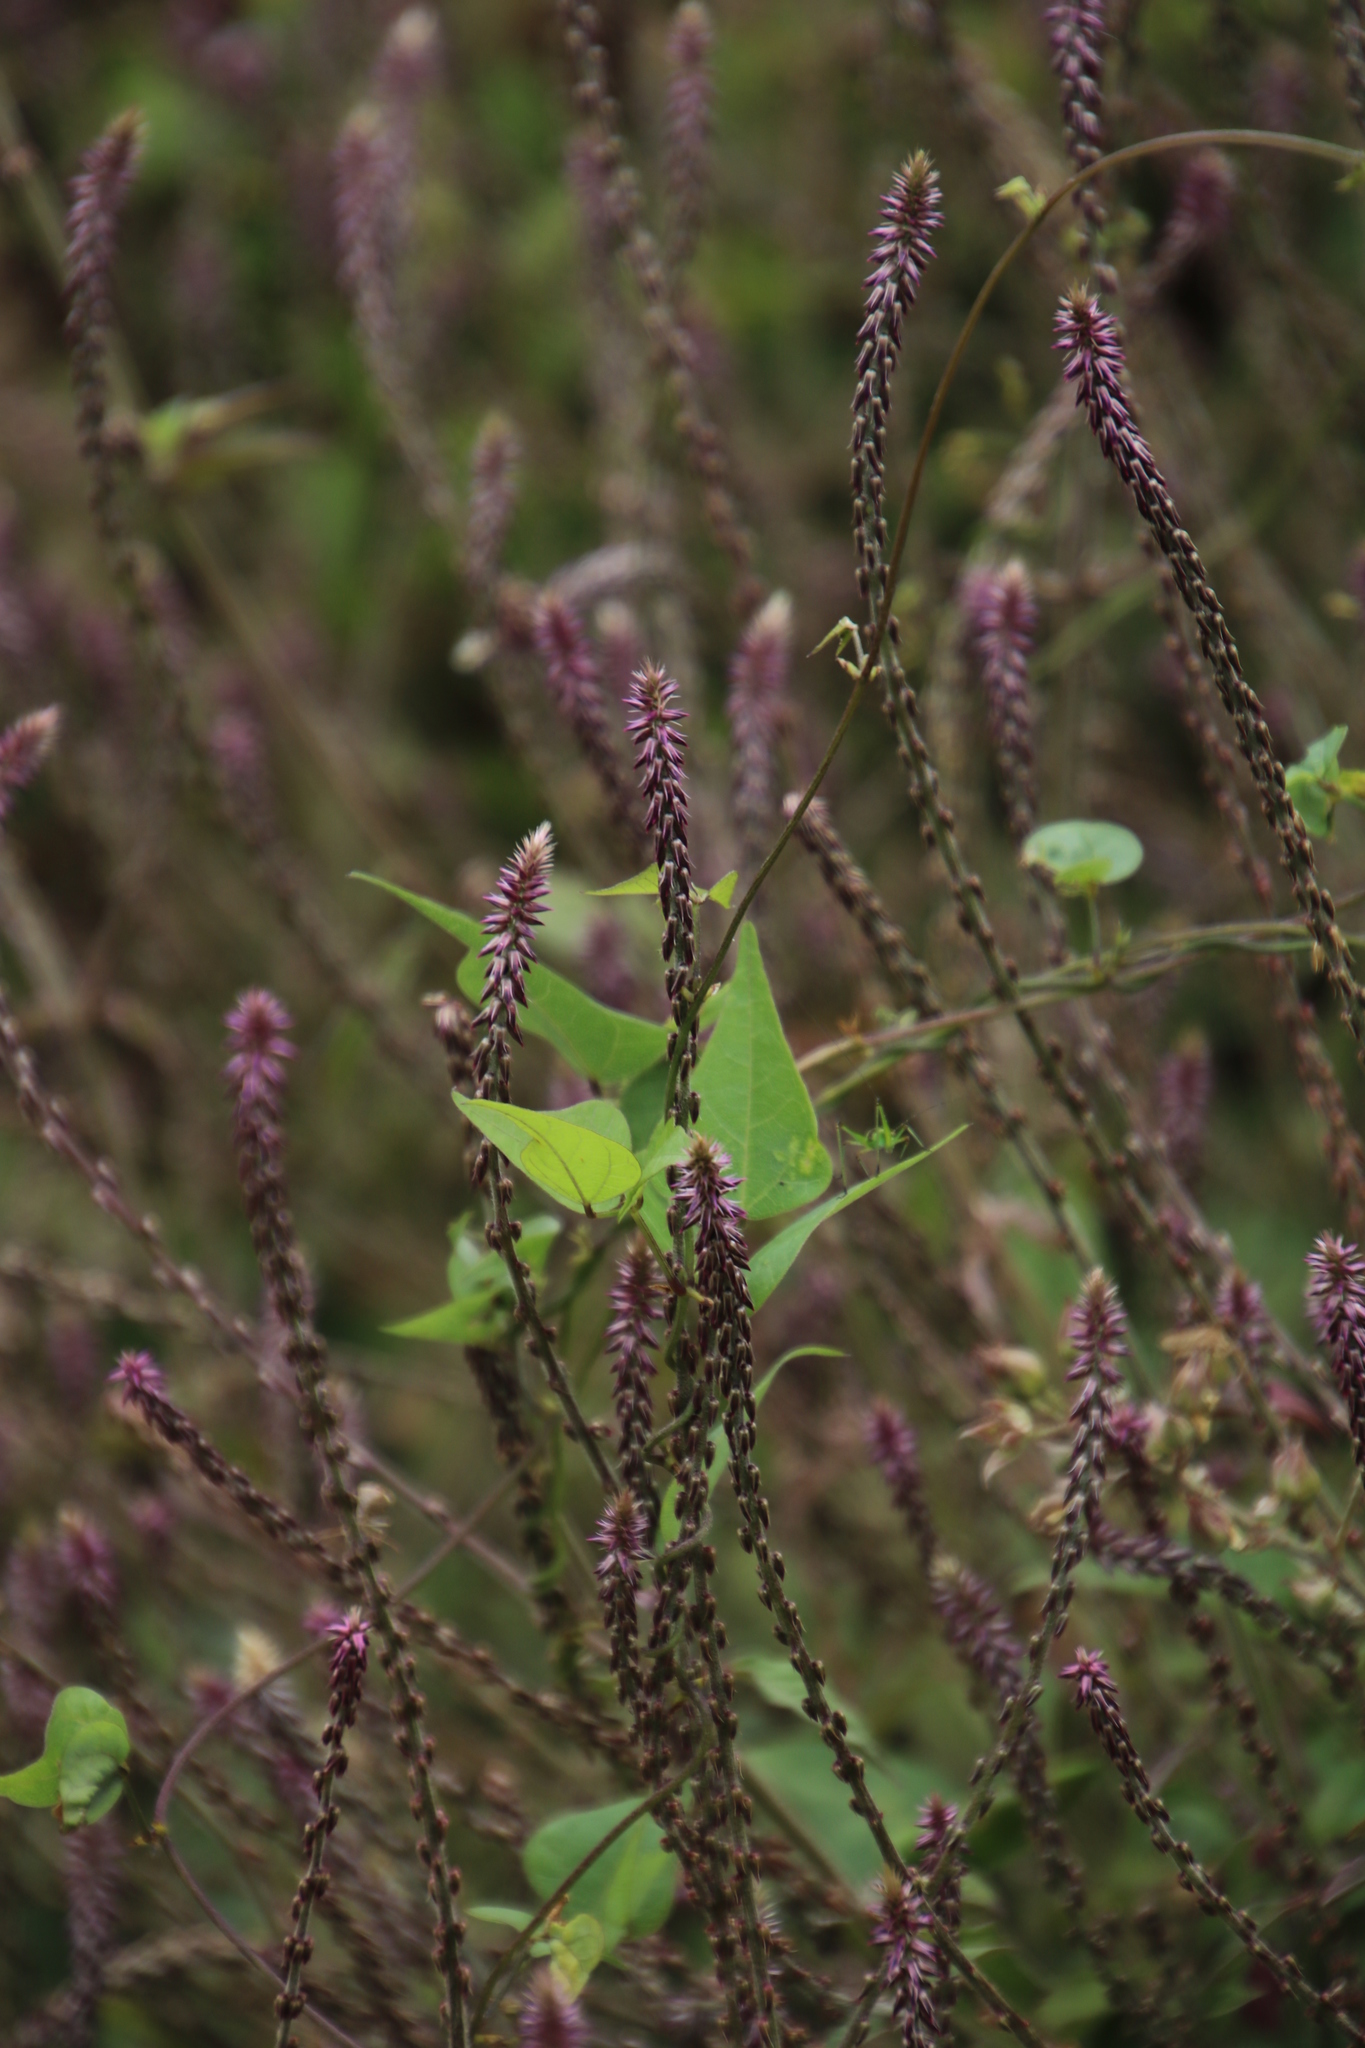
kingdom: Plantae
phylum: Tracheophyta
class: Magnoliopsida
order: Caryophyllales
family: Amaranthaceae
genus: Achyranthes
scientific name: Achyranthes aspera
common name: Devil's horsewhip
